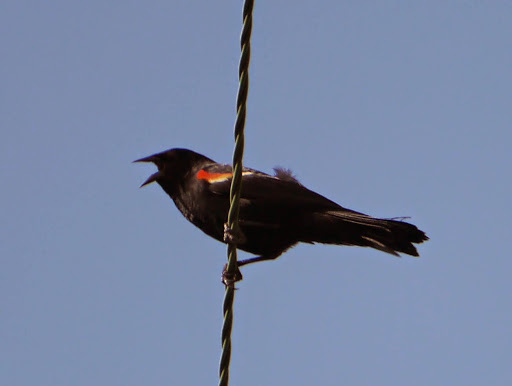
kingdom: Animalia
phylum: Chordata
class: Aves
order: Passeriformes
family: Icteridae
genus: Agelaius
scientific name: Agelaius phoeniceus
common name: Red-winged blackbird
